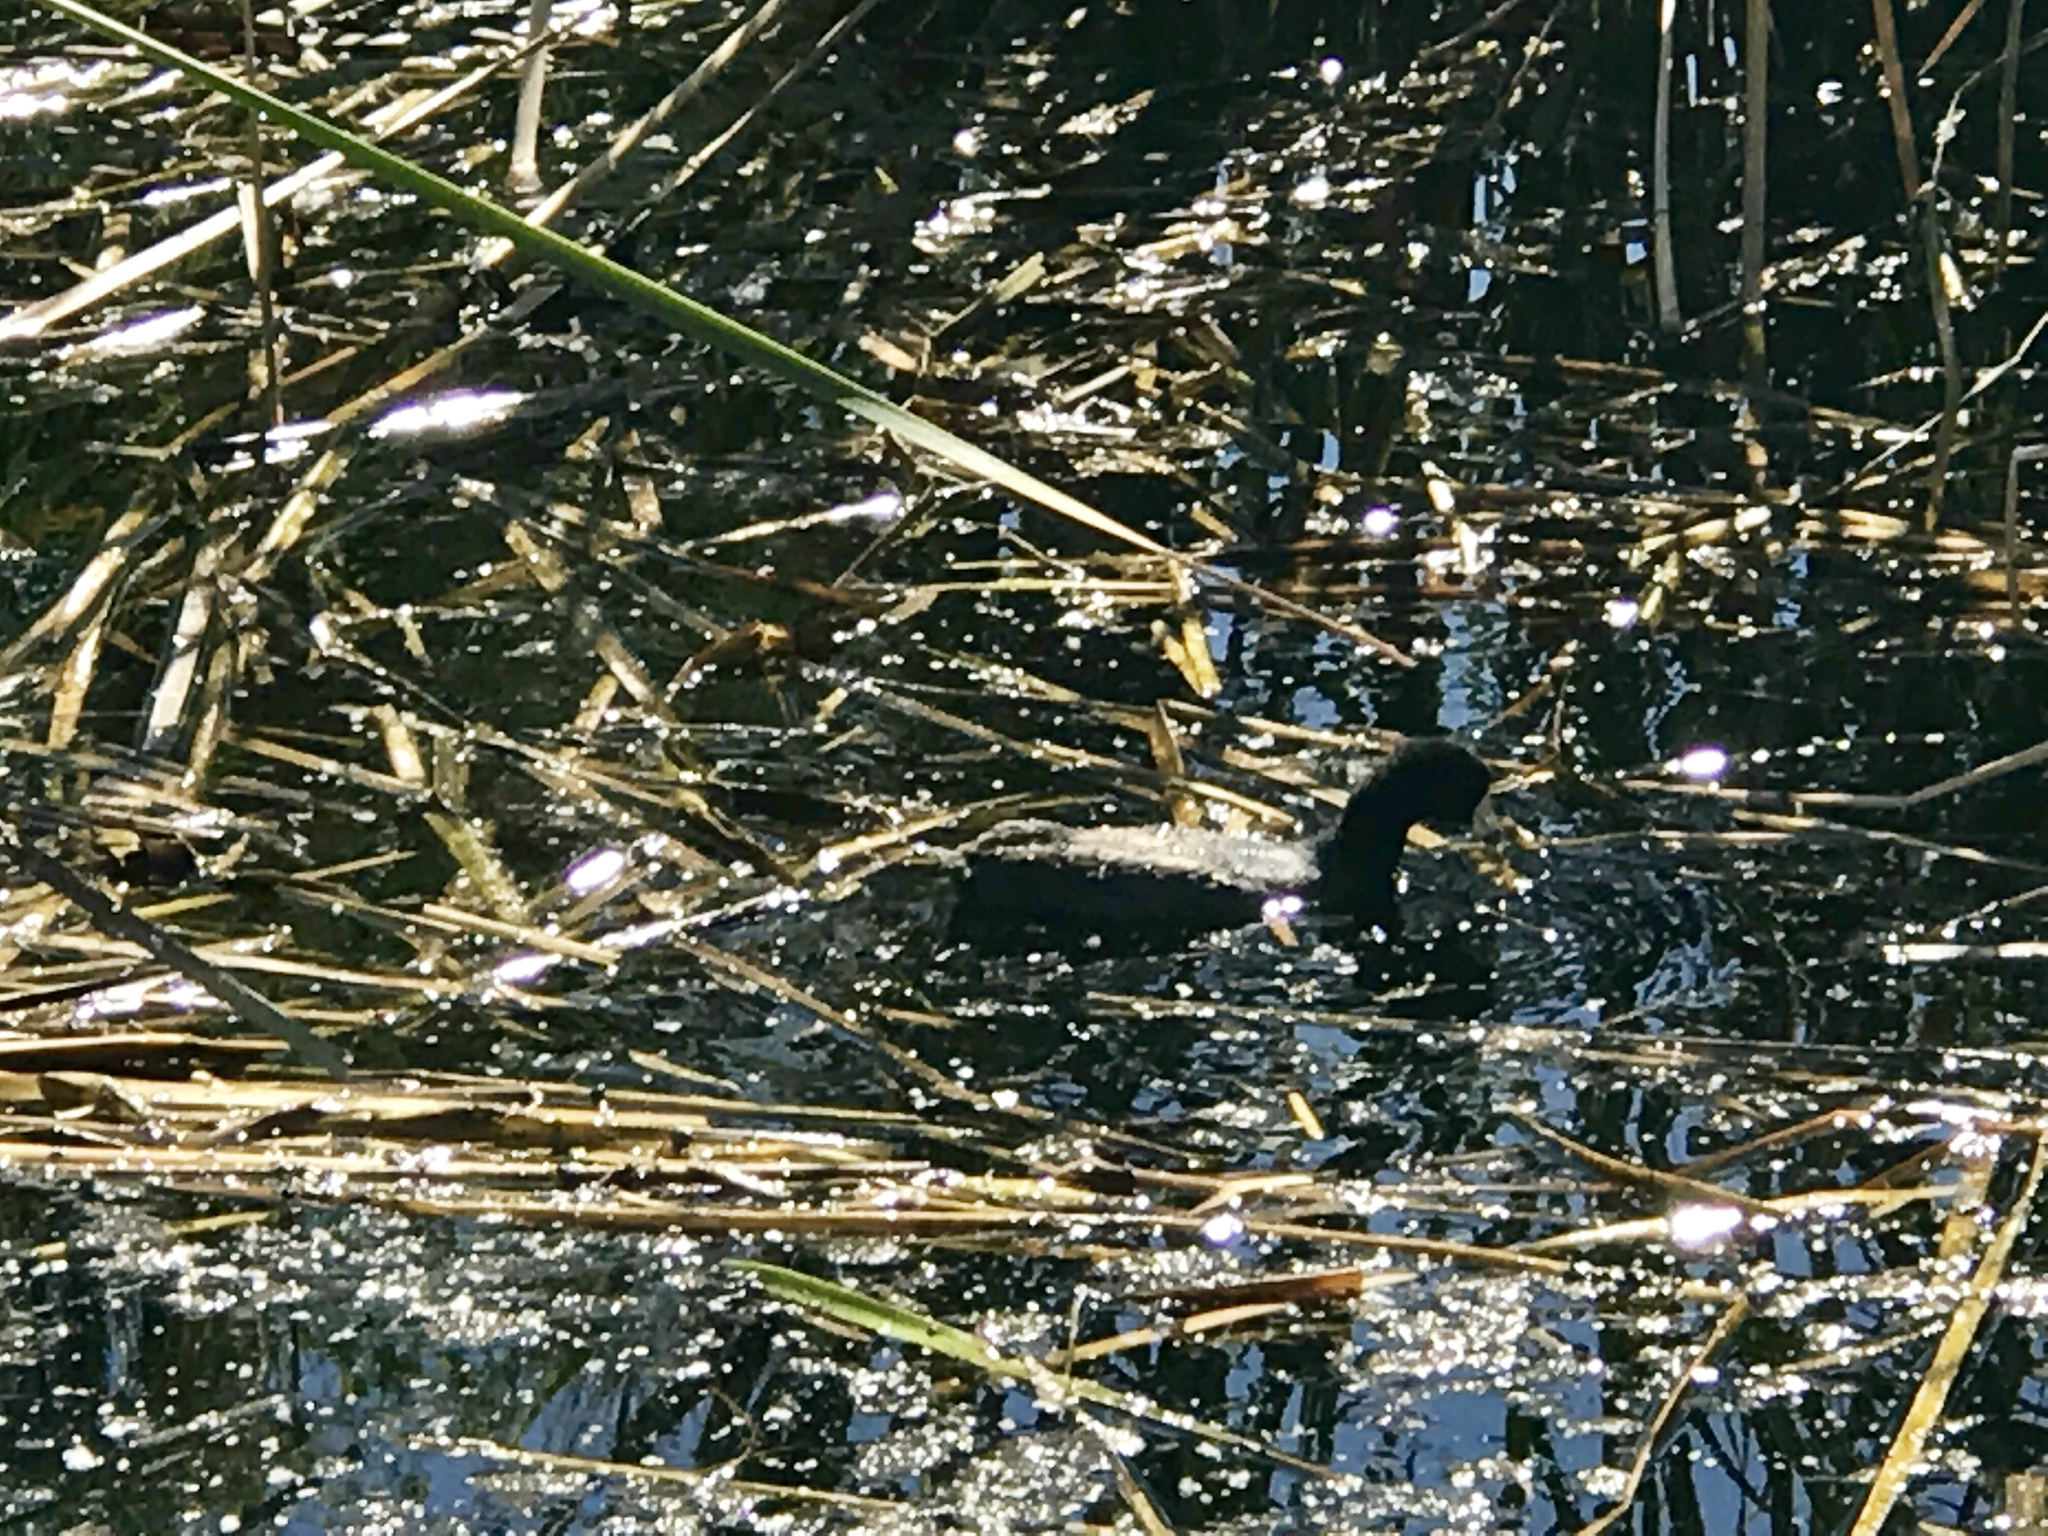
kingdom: Animalia
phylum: Chordata
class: Aves
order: Gruiformes
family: Rallidae
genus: Fulica
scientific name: Fulica americana
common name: American coot
